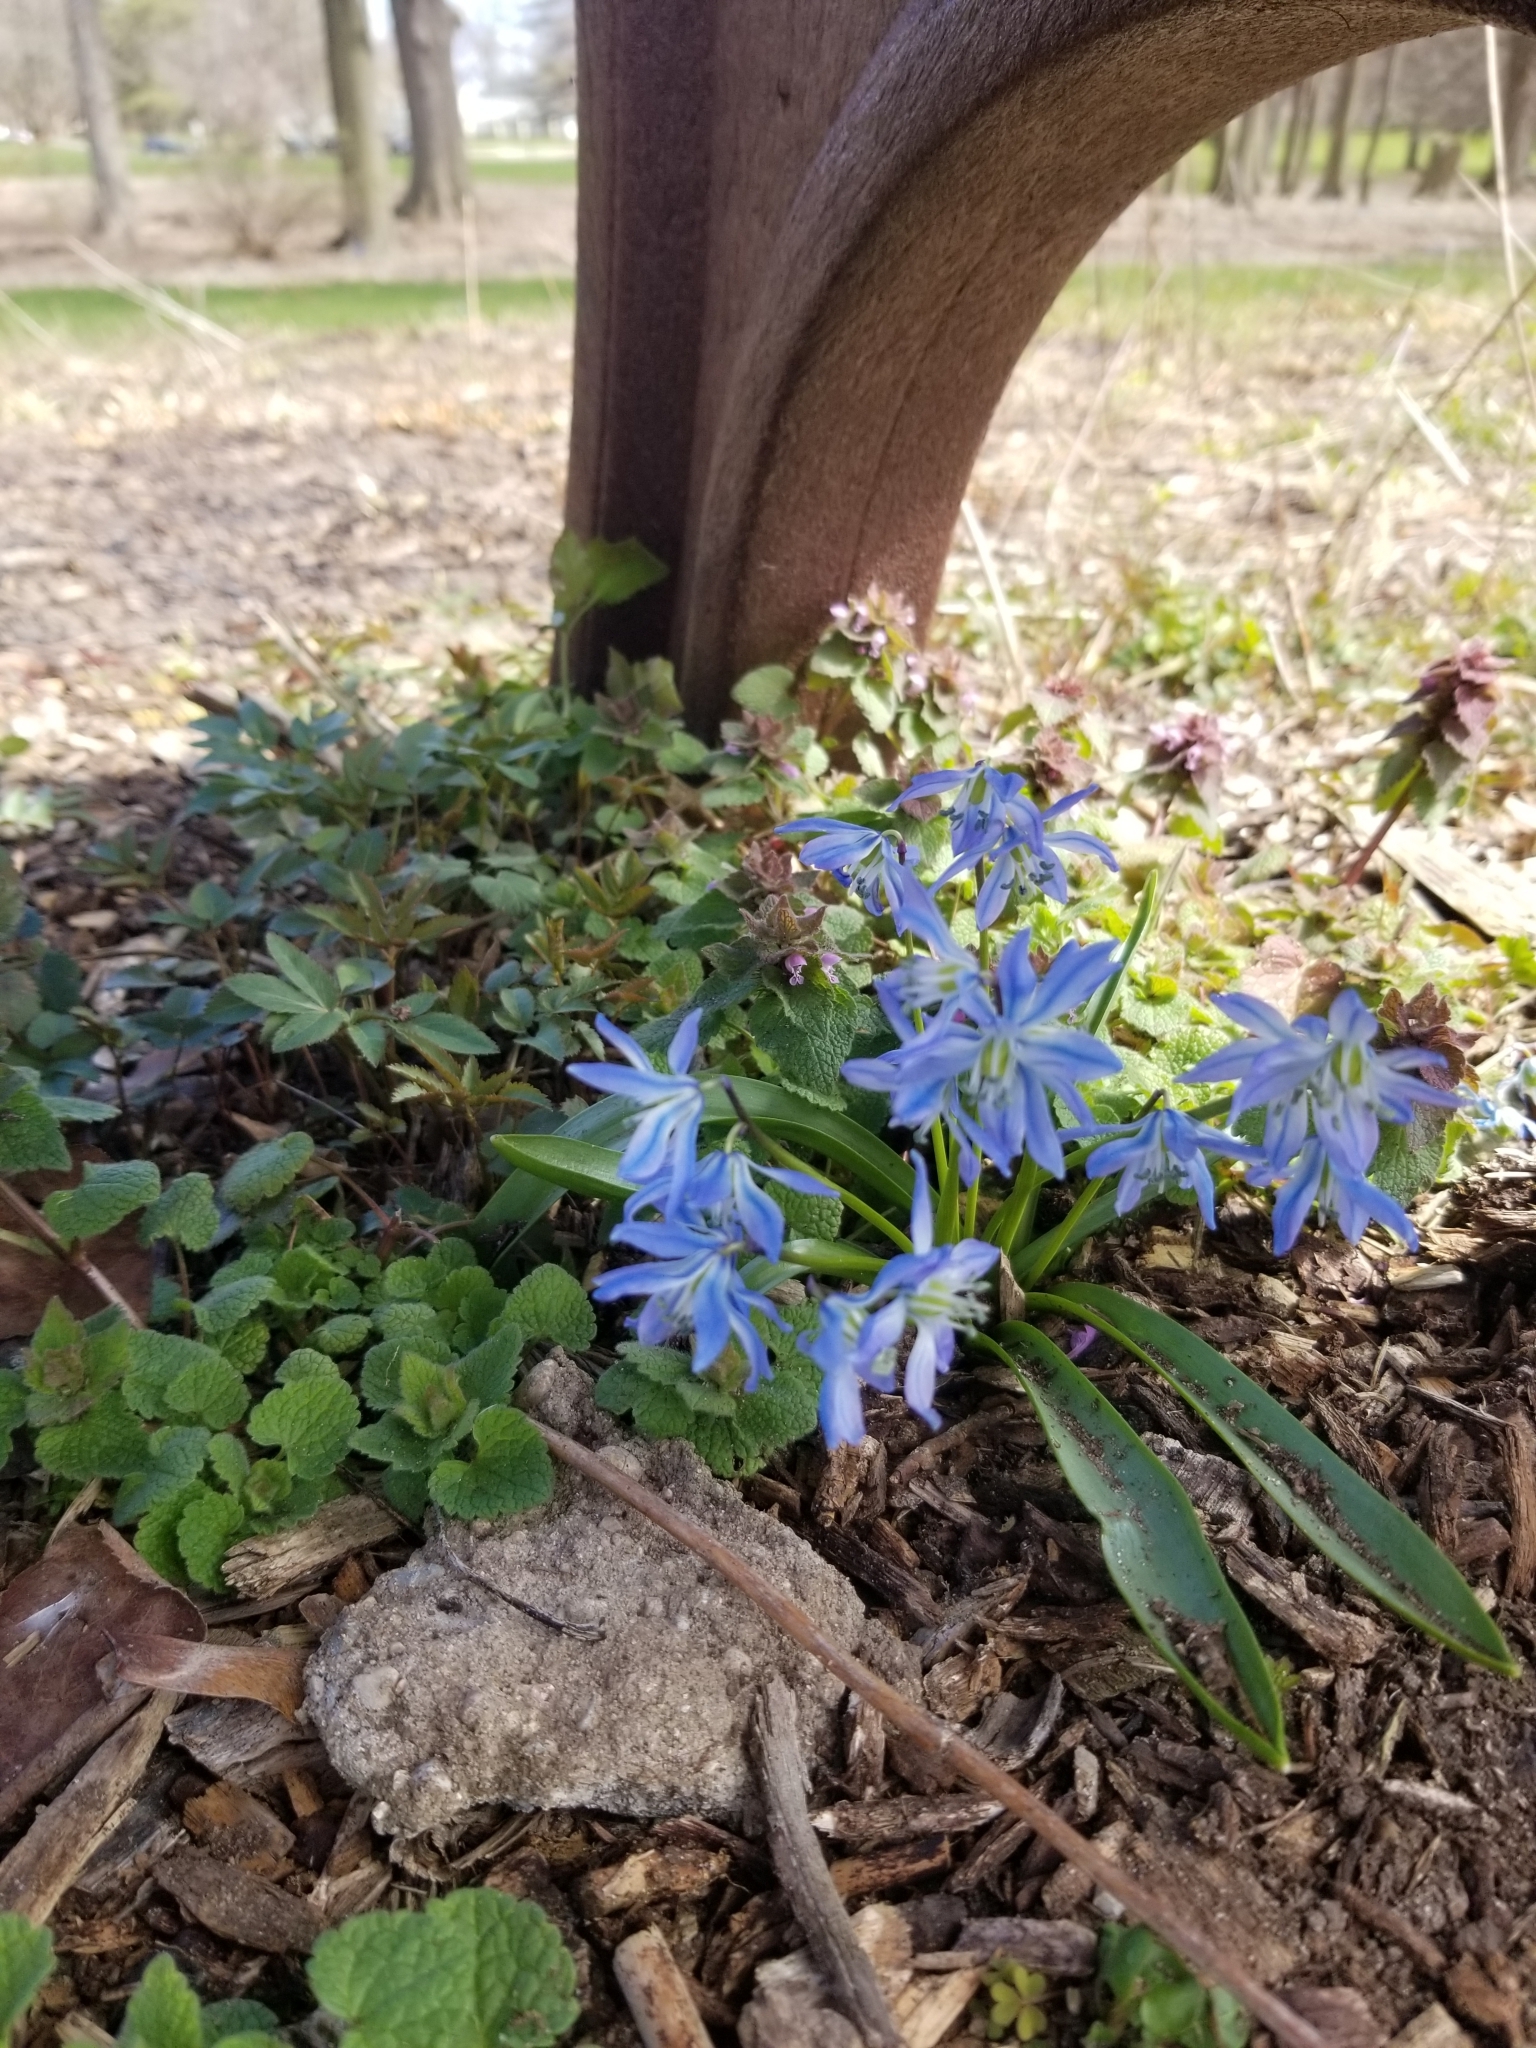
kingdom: Plantae
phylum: Tracheophyta
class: Liliopsida
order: Asparagales
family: Asparagaceae
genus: Scilla
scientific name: Scilla siberica
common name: Siberian squill
